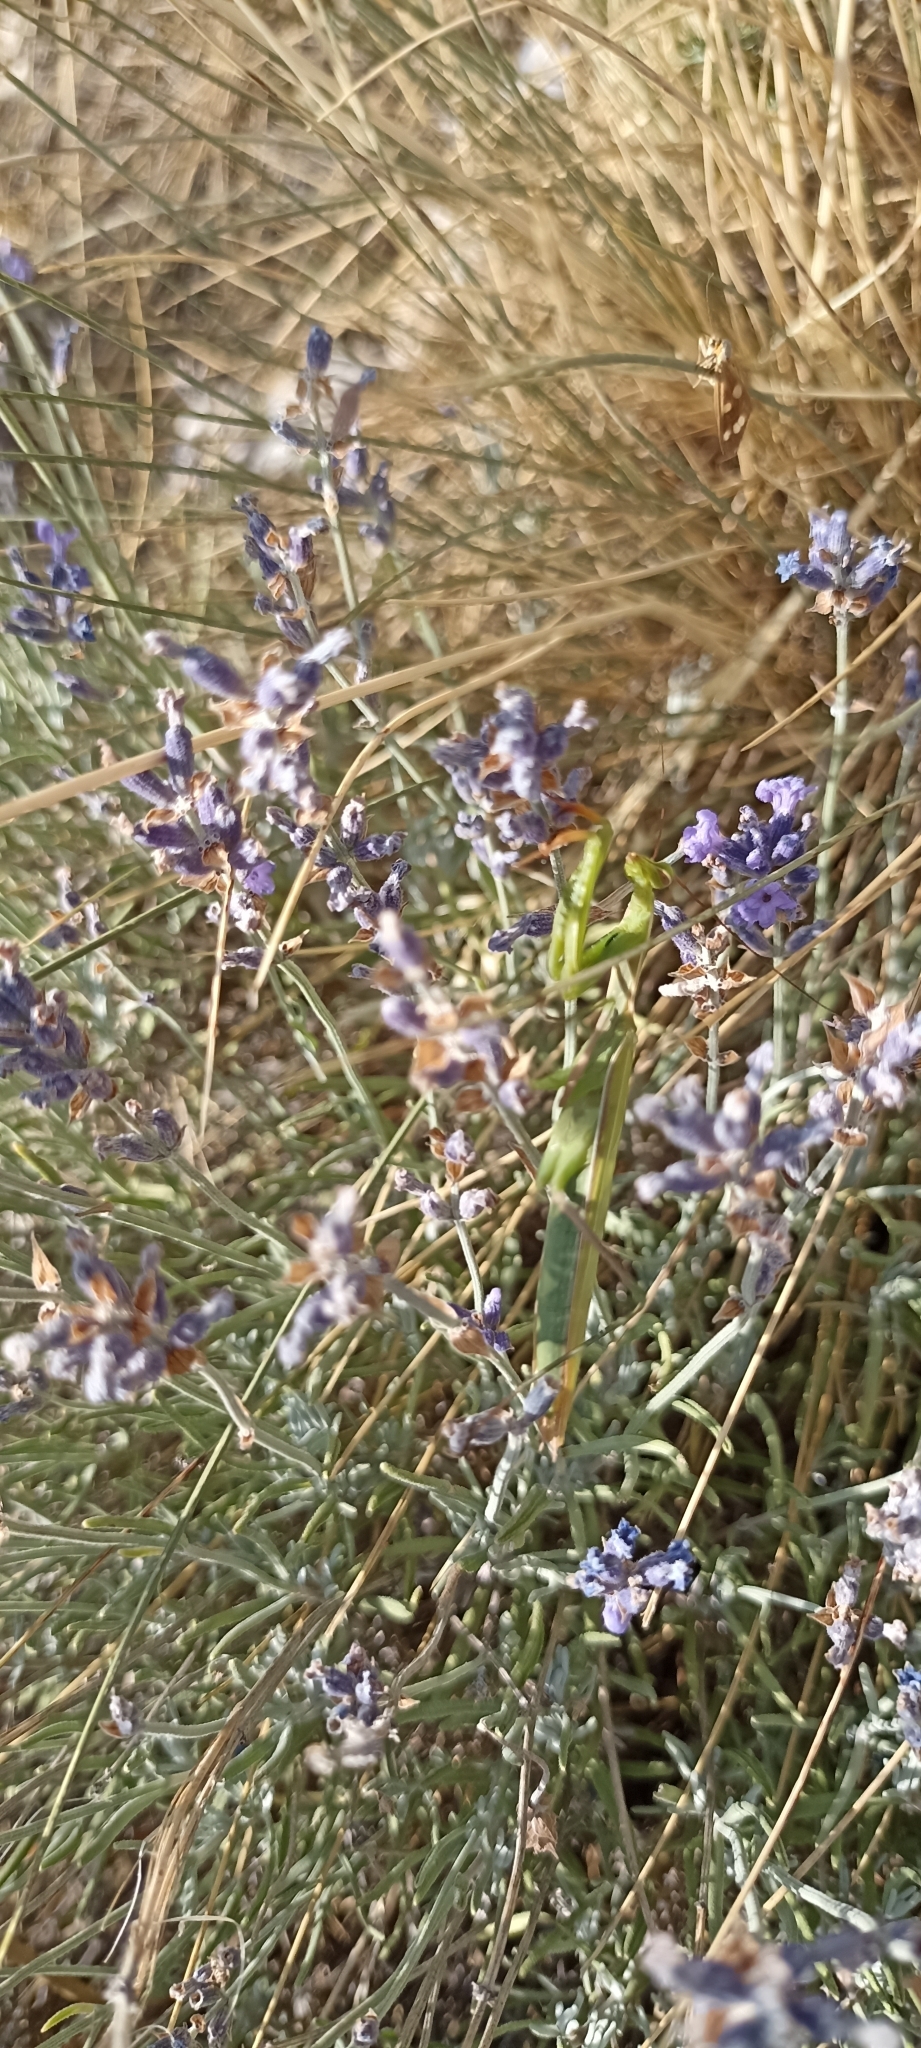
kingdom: Animalia
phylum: Arthropoda
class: Insecta
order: Mantodea
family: Mantidae
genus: Mantis
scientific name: Mantis religiosa
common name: Praying mantis
